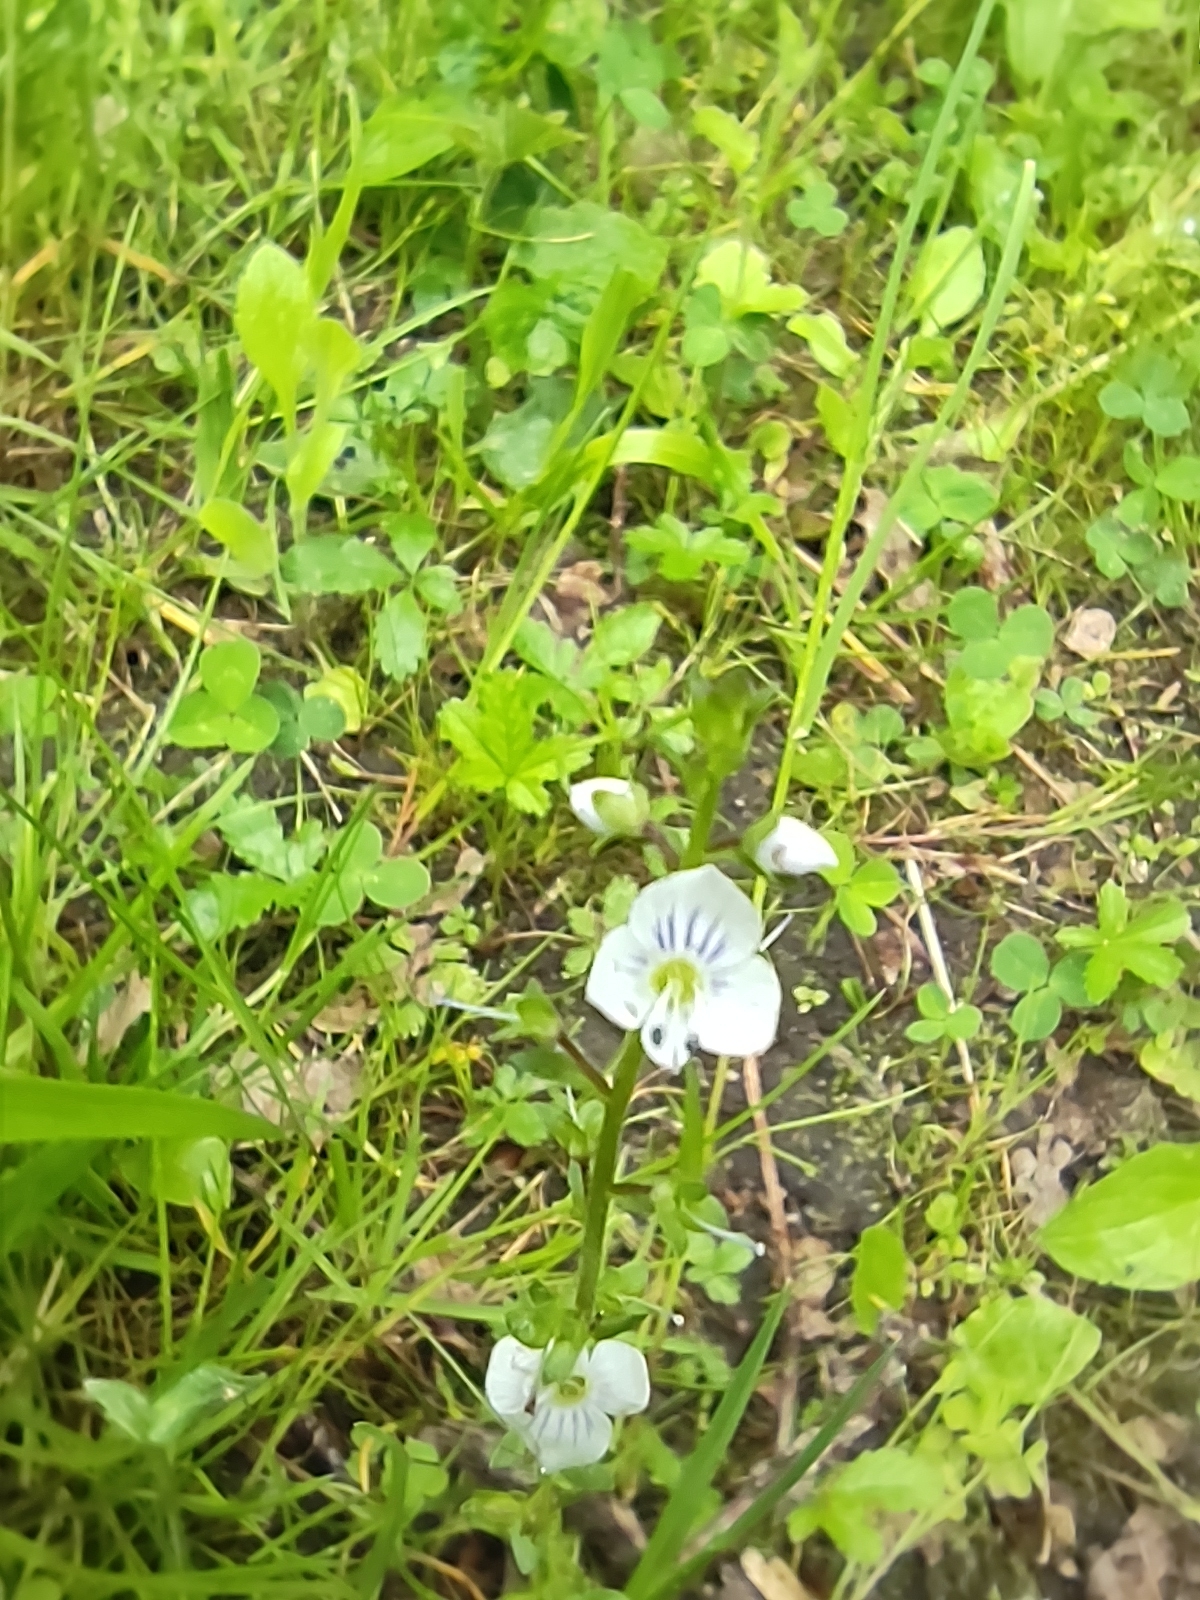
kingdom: Plantae
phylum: Tracheophyta
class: Magnoliopsida
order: Lamiales
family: Plantaginaceae
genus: Veronica
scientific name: Veronica serpyllifolia
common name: Thyme-leaved speedwell
